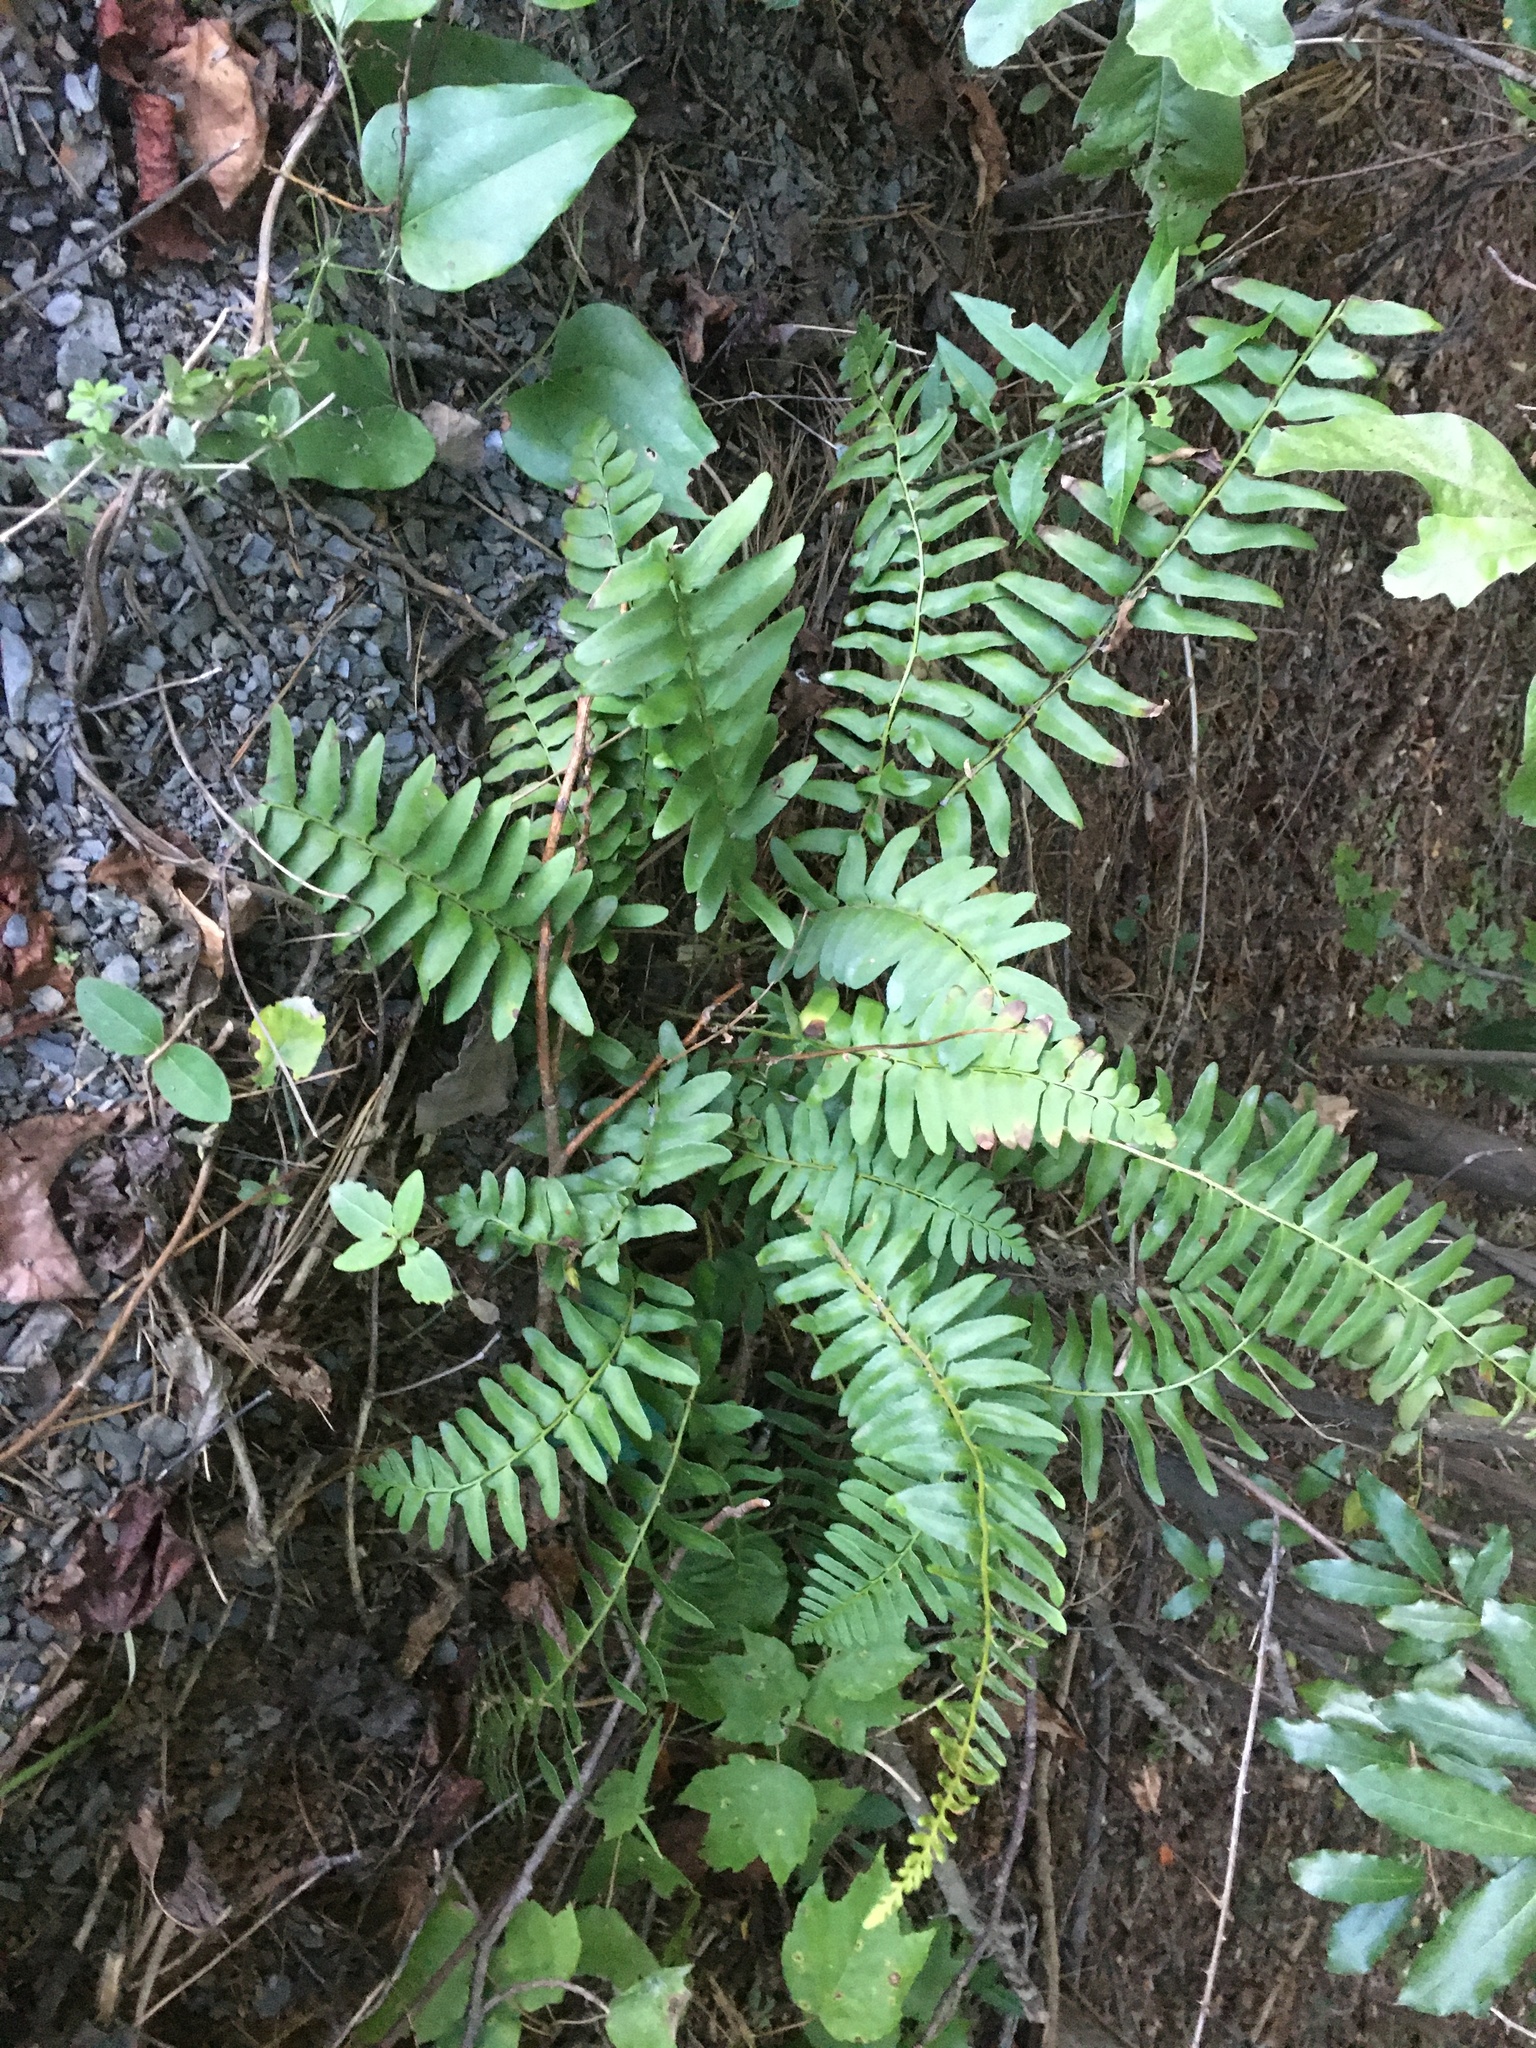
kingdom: Plantae
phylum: Tracheophyta
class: Polypodiopsida
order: Polypodiales
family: Dryopteridaceae
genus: Polystichum
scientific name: Polystichum acrostichoides
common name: Christmas fern
